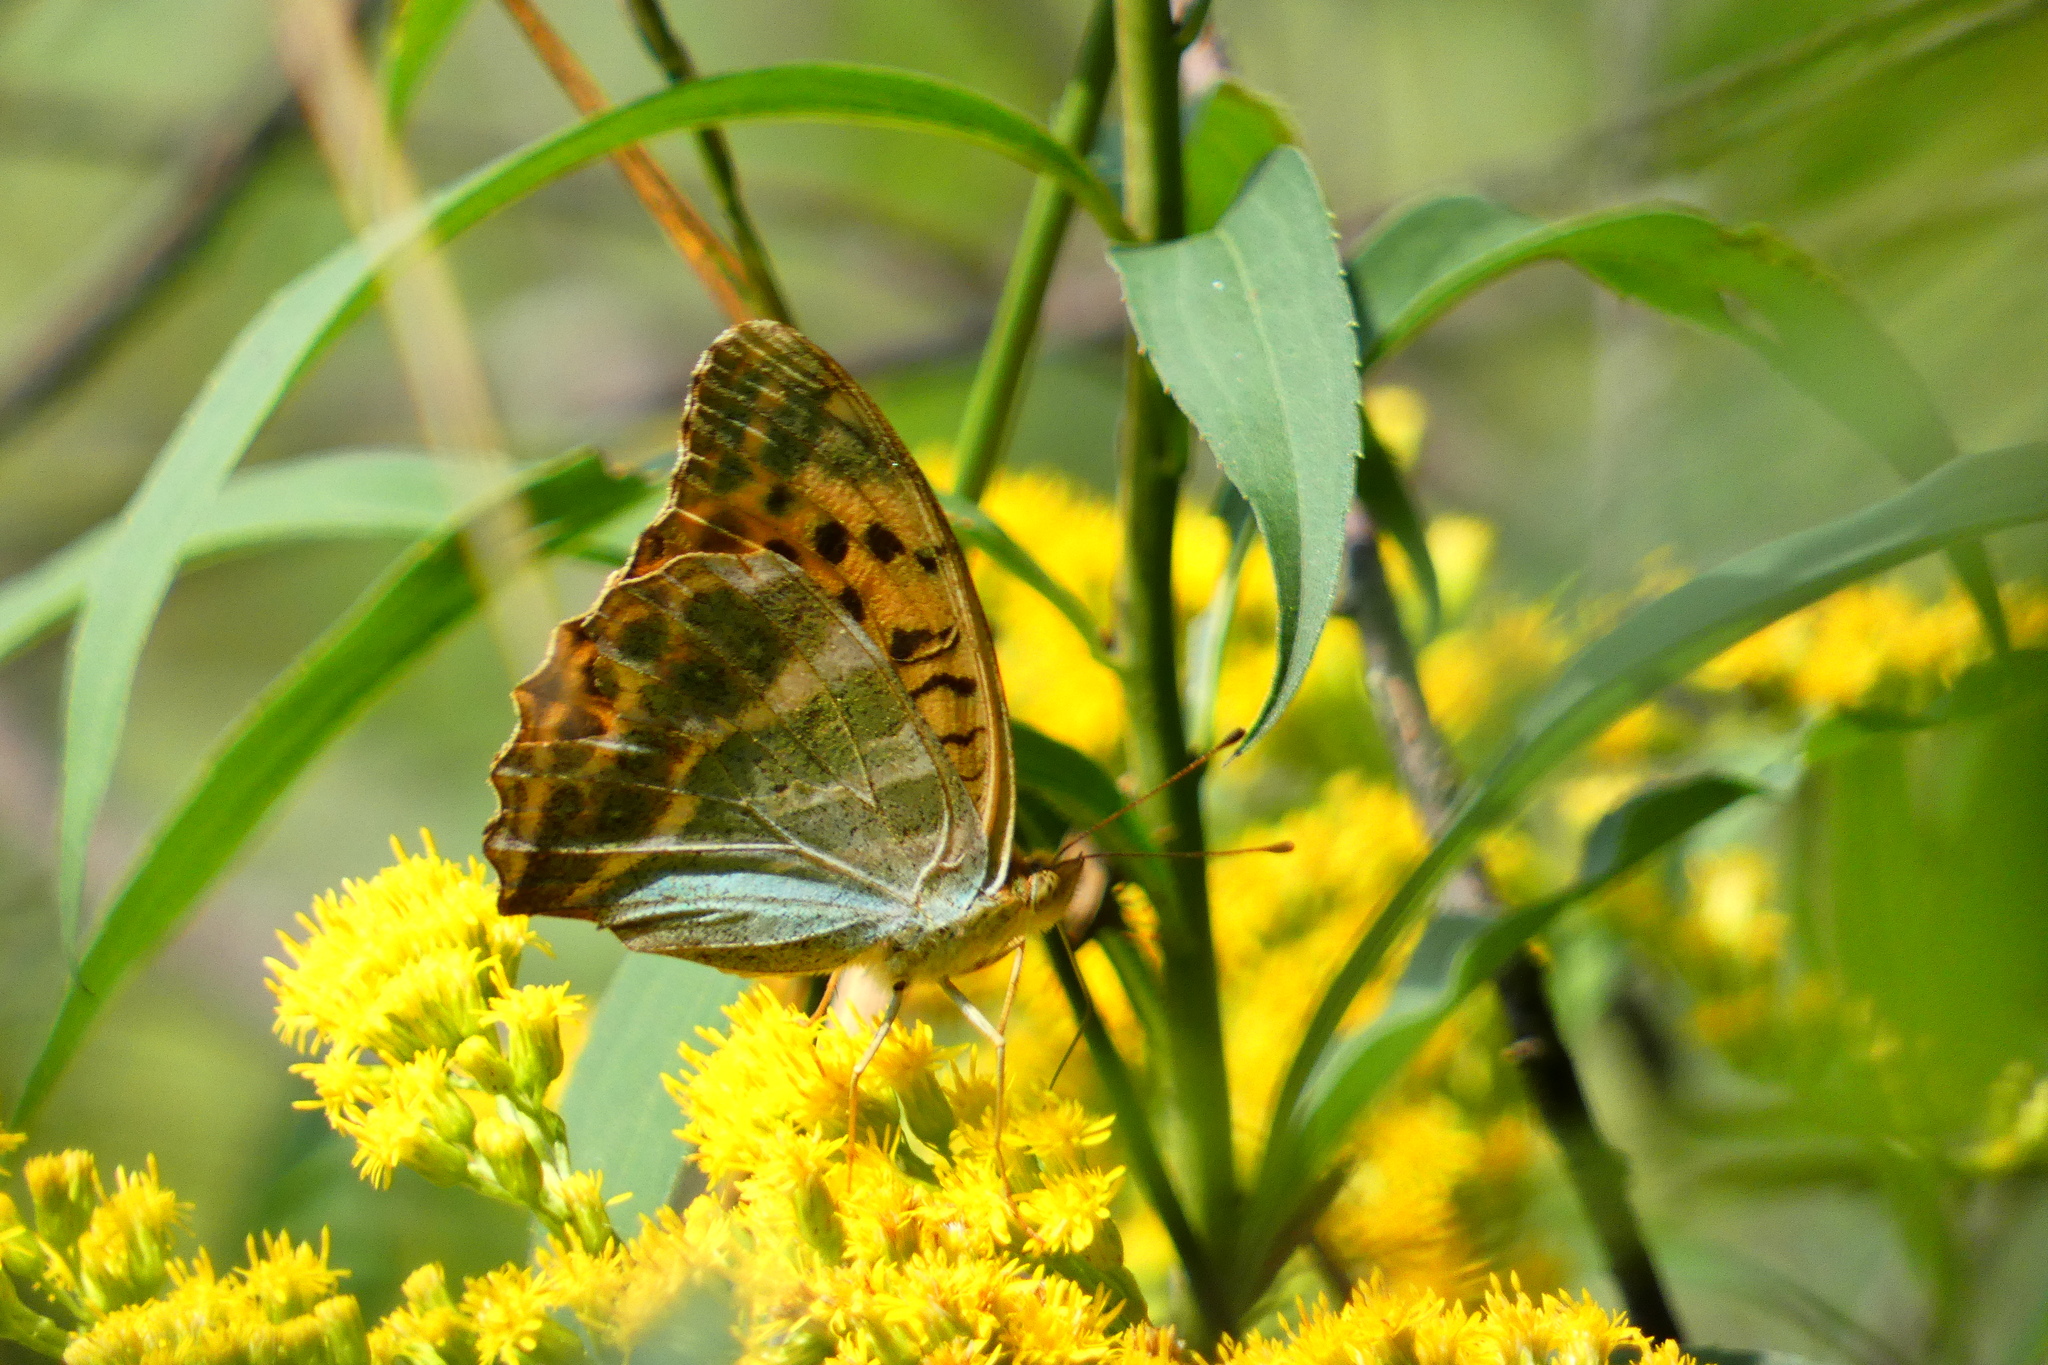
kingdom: Animalia
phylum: Arthropoda
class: Insecta
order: Lepidoptera
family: Nymphalidae
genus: Argynnis
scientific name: Argynnis paphia
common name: Silver-washed fritillary
